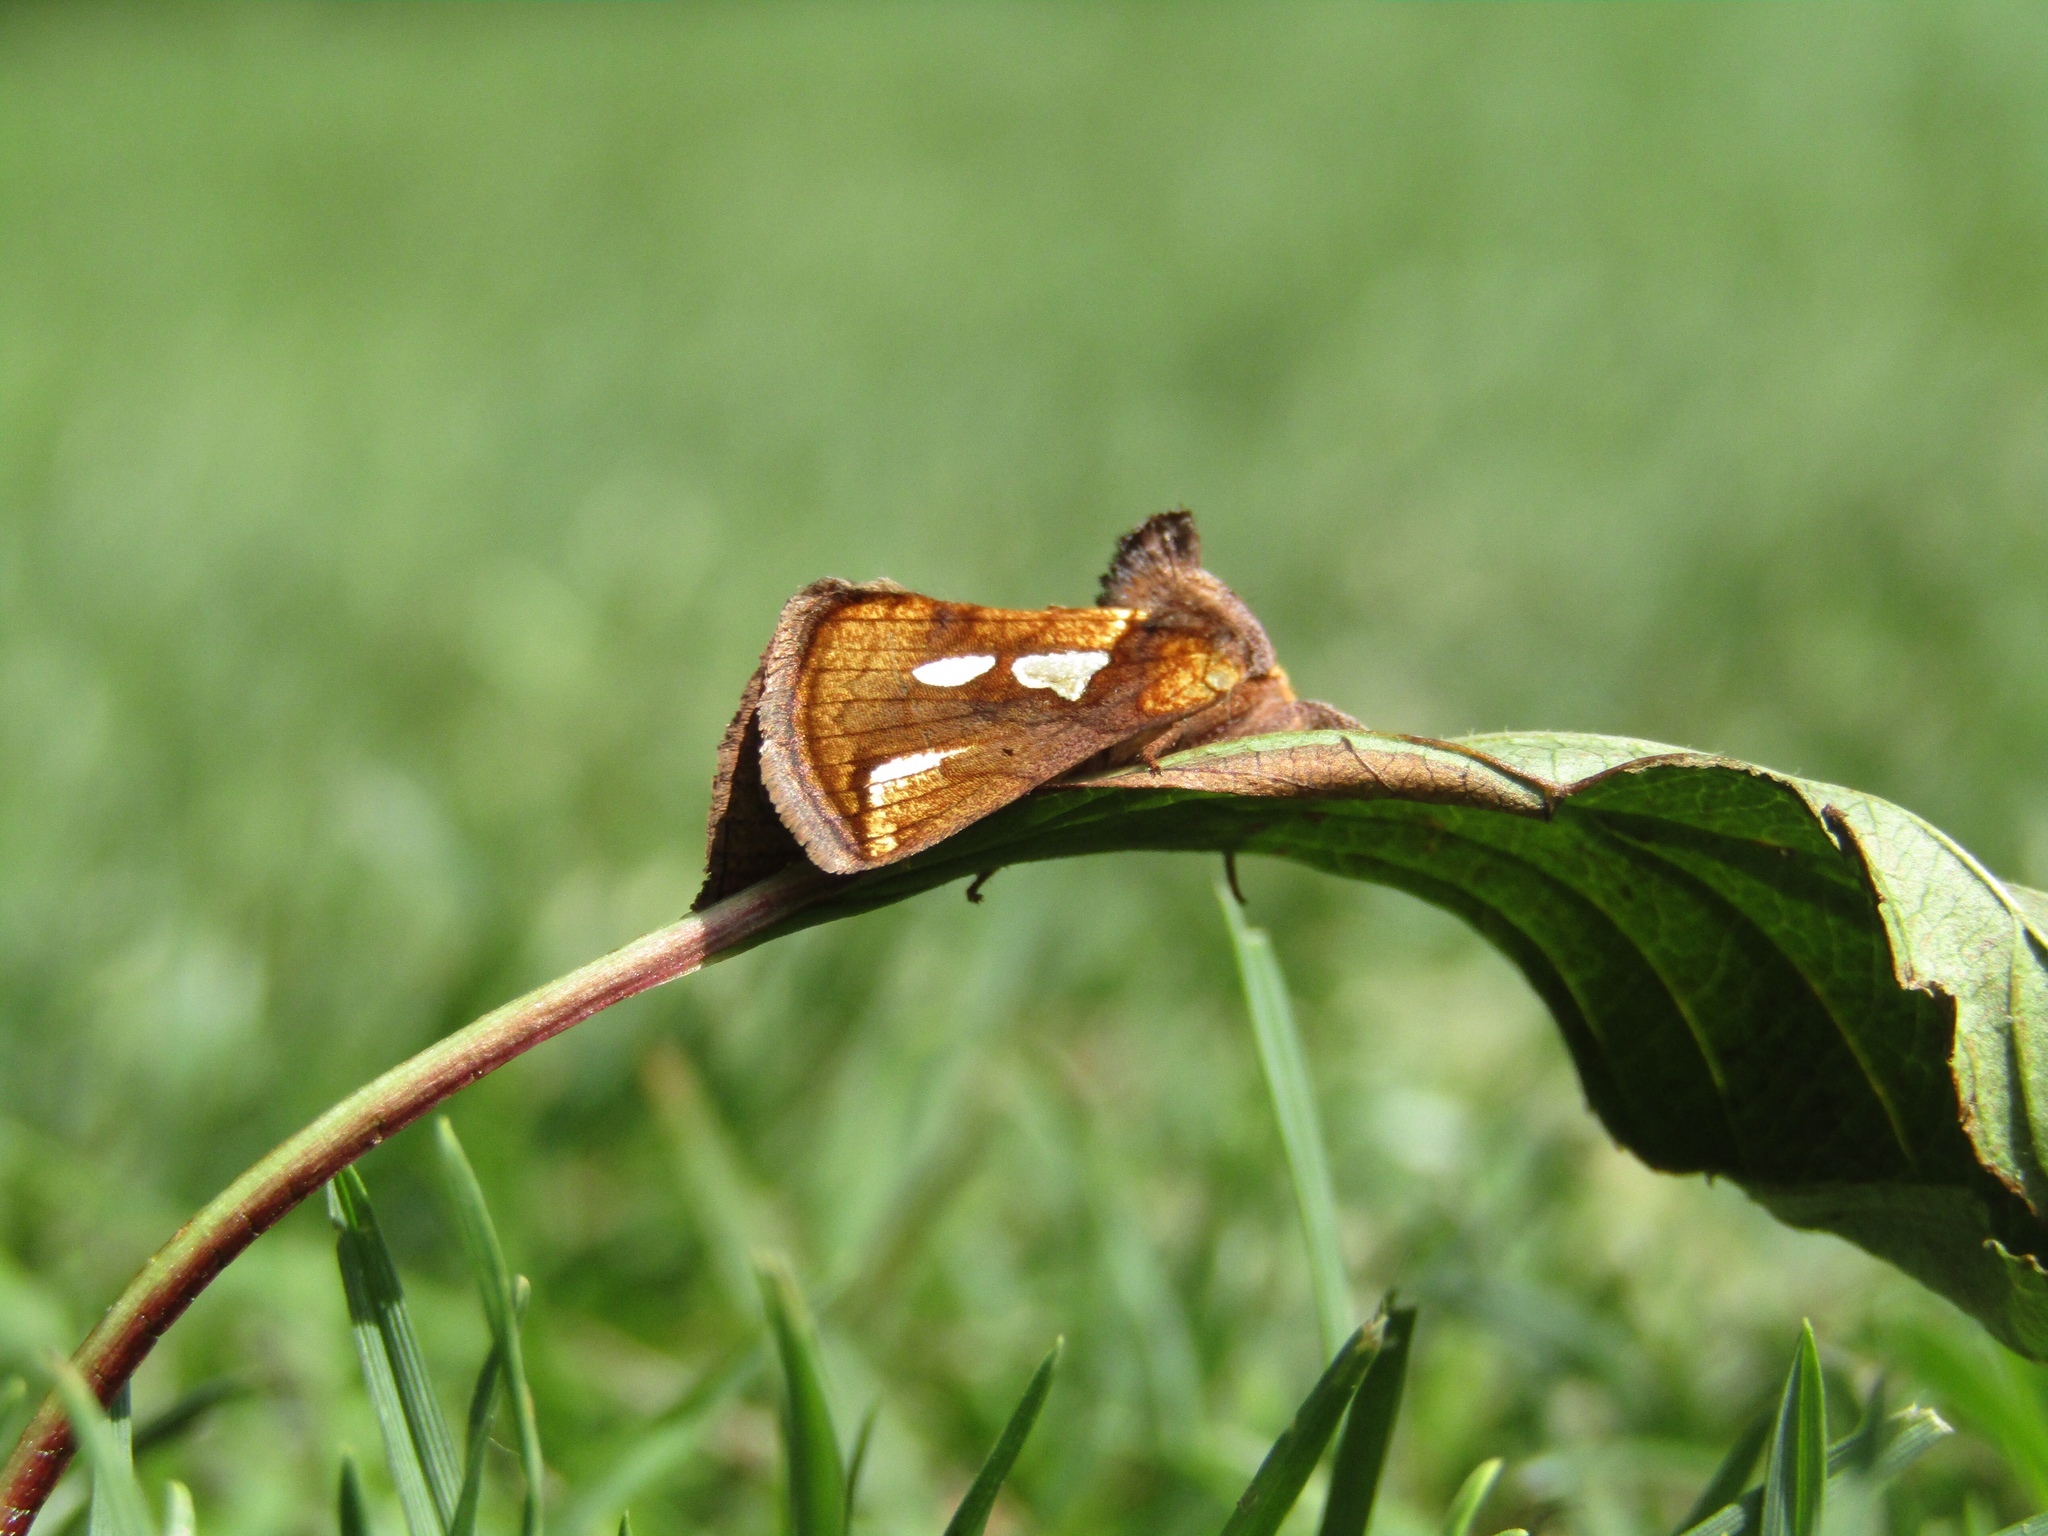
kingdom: Animalia
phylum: Arthropoda
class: Insecta
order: Lepidoptera
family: Noctuidae
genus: Plusia
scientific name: Plusia festucae
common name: Gold spot
